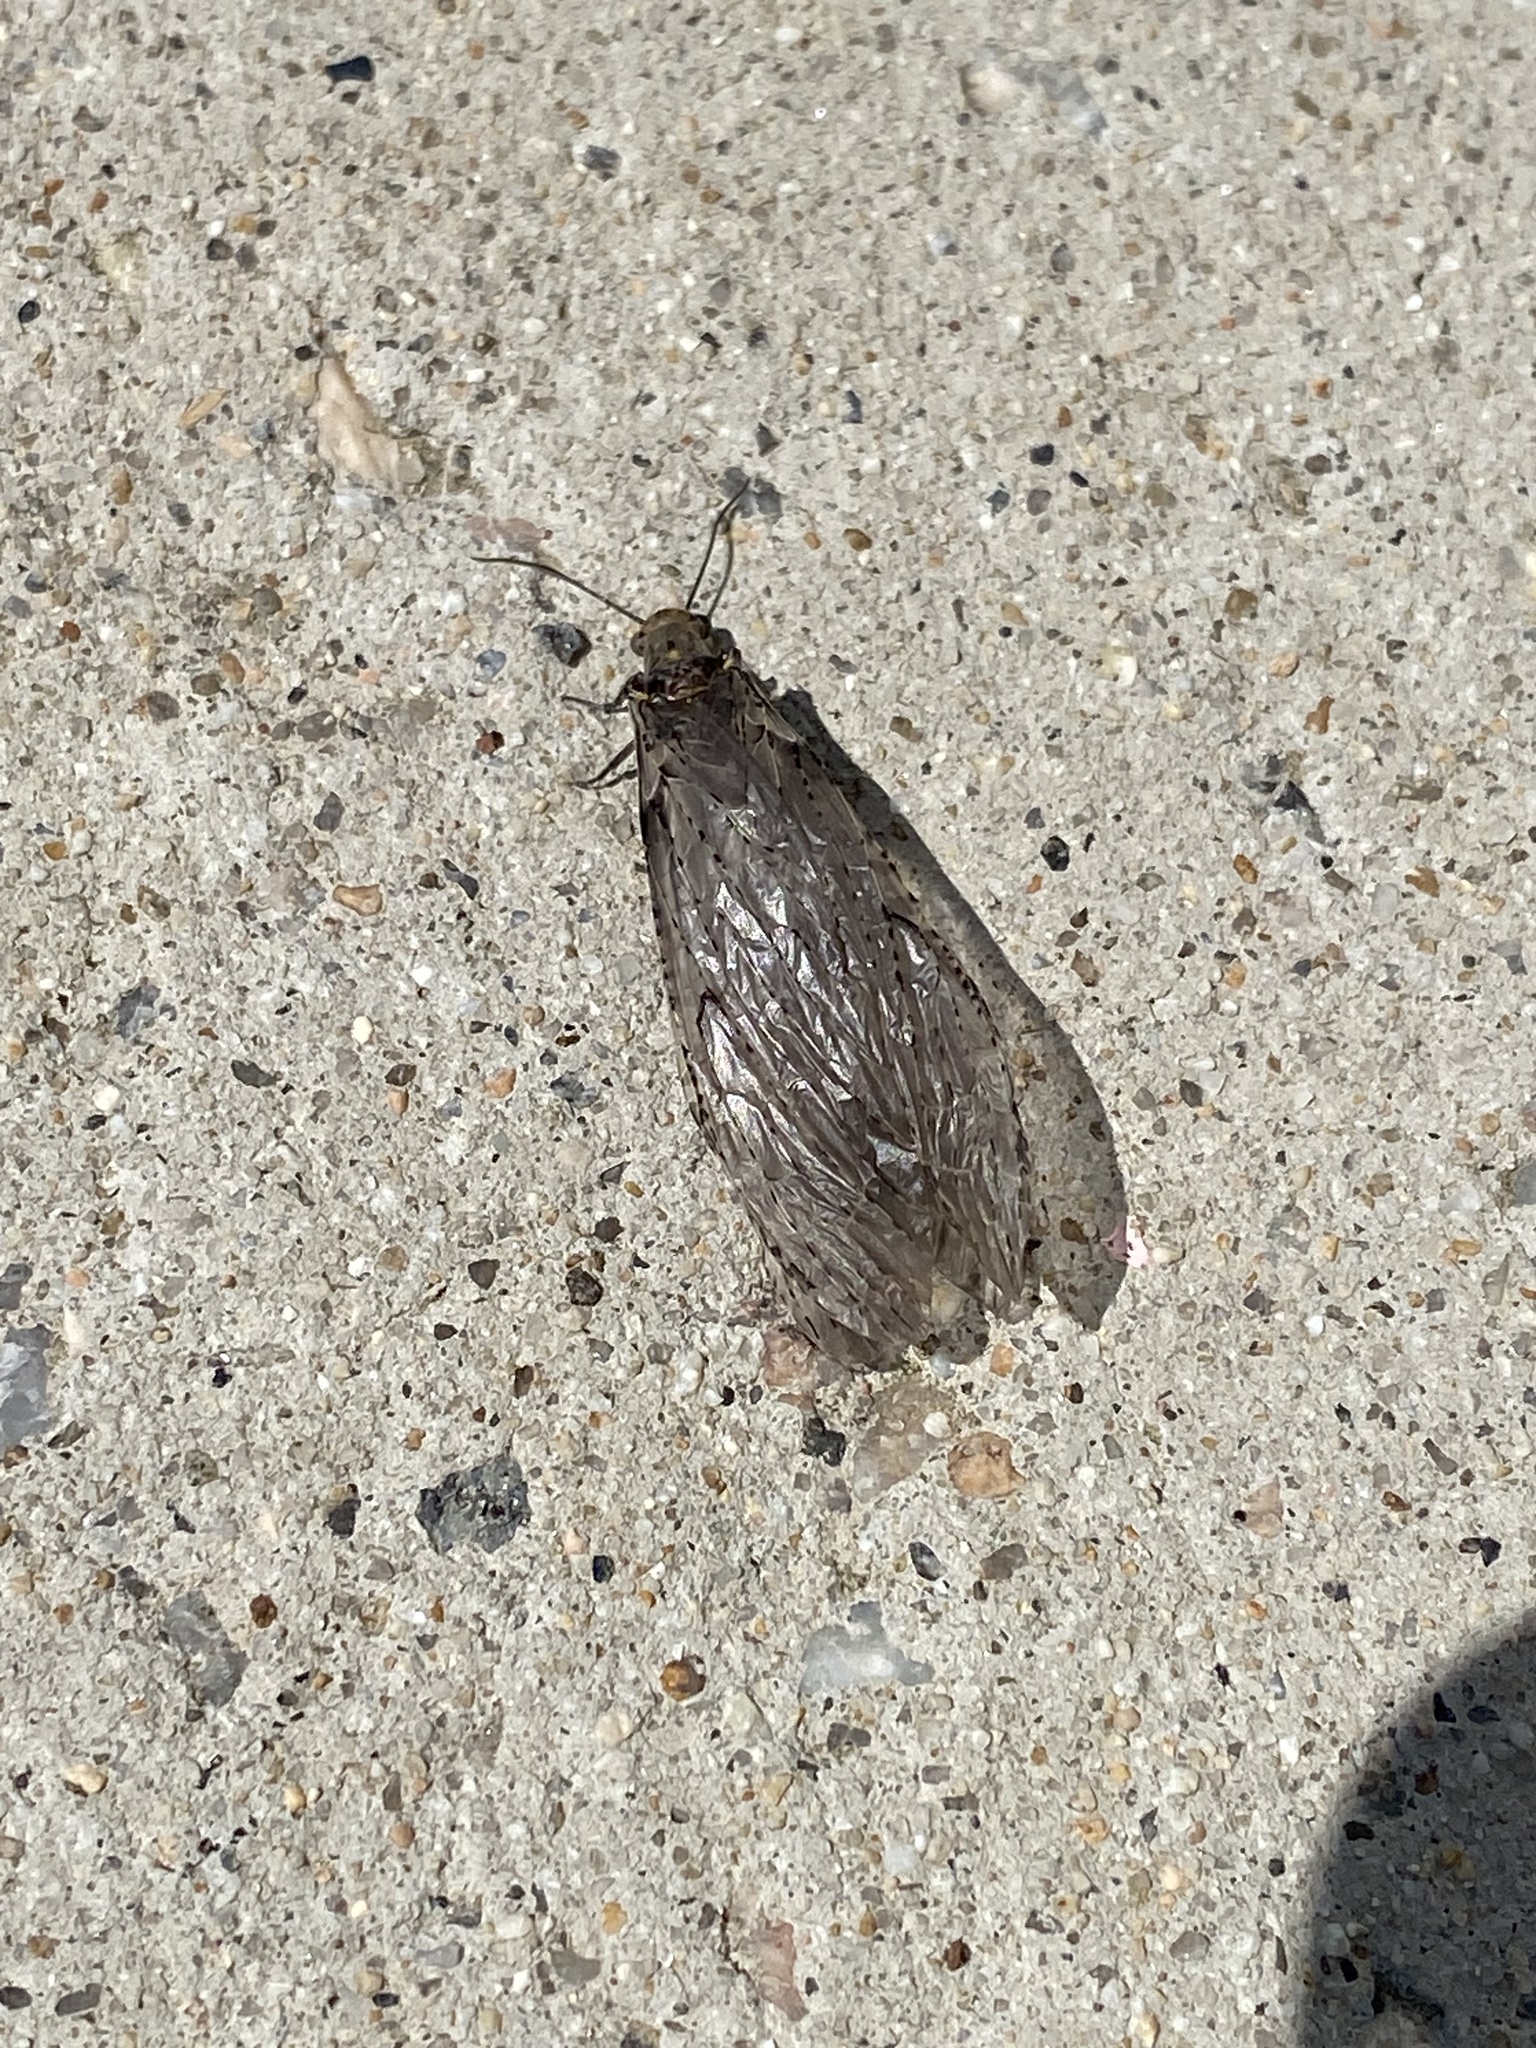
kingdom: Animalia
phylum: Arthropoda
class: Insecta
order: Megaloptera
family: Corydalidae
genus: Chauliodes
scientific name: Chauliodes rastricornis
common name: Spring fishfly
